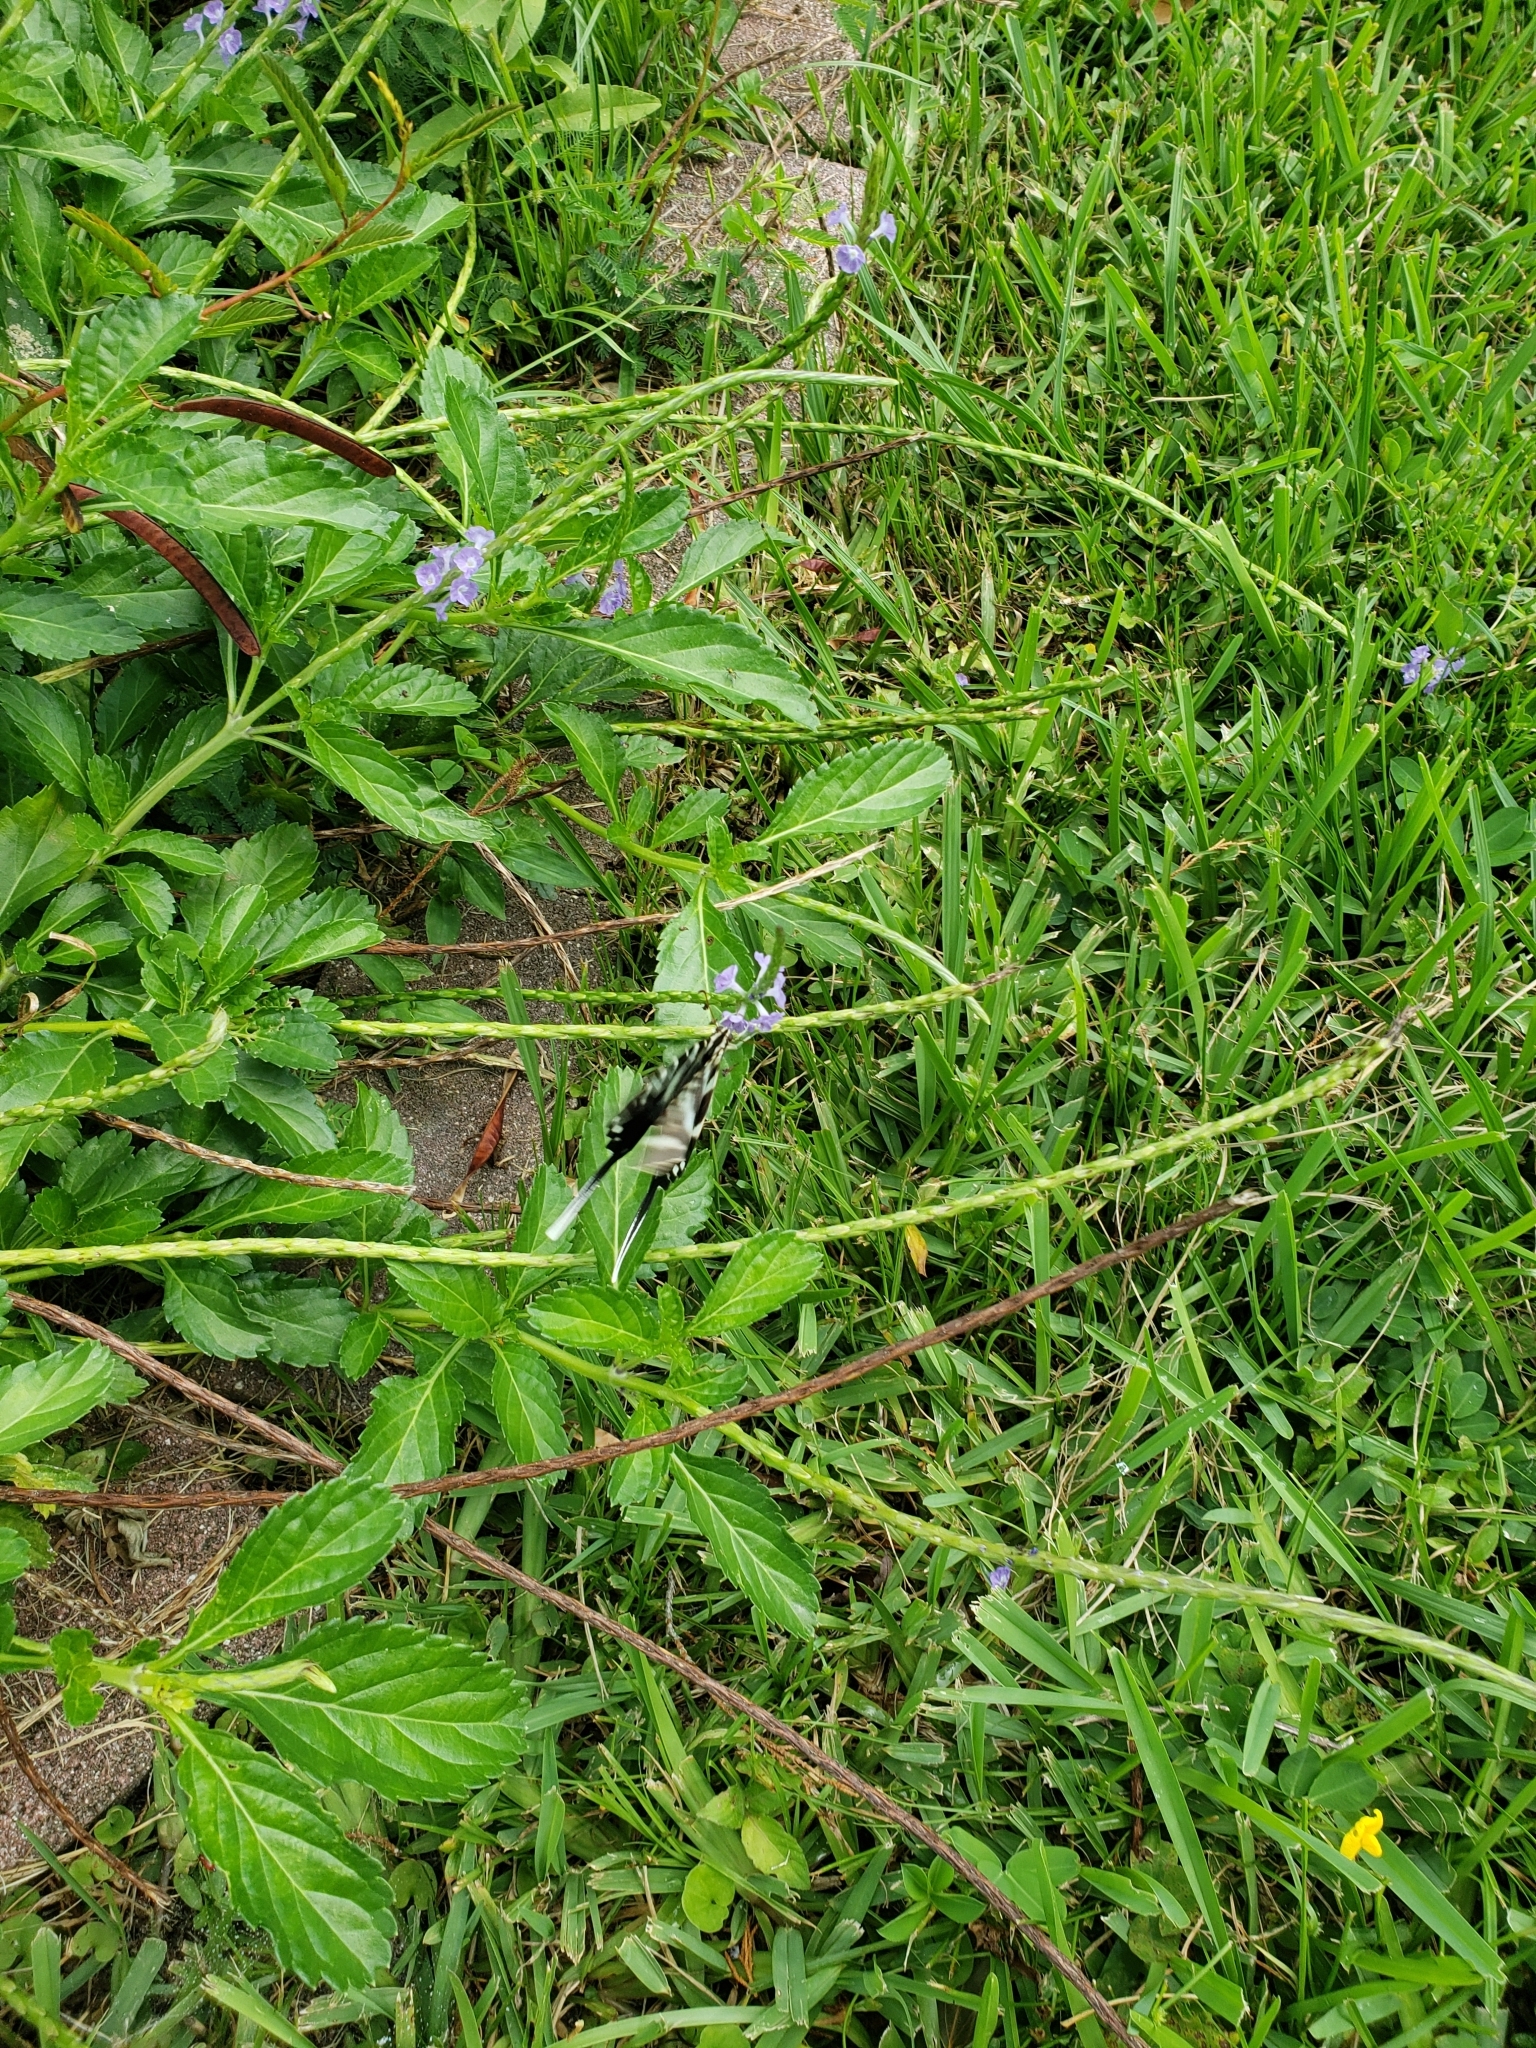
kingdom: Animalia
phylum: Arthropoda
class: Insecta
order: Lepidoptera
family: Papilionidae
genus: Protographium
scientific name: Protographium marcellus
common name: Zebra swallowtail
